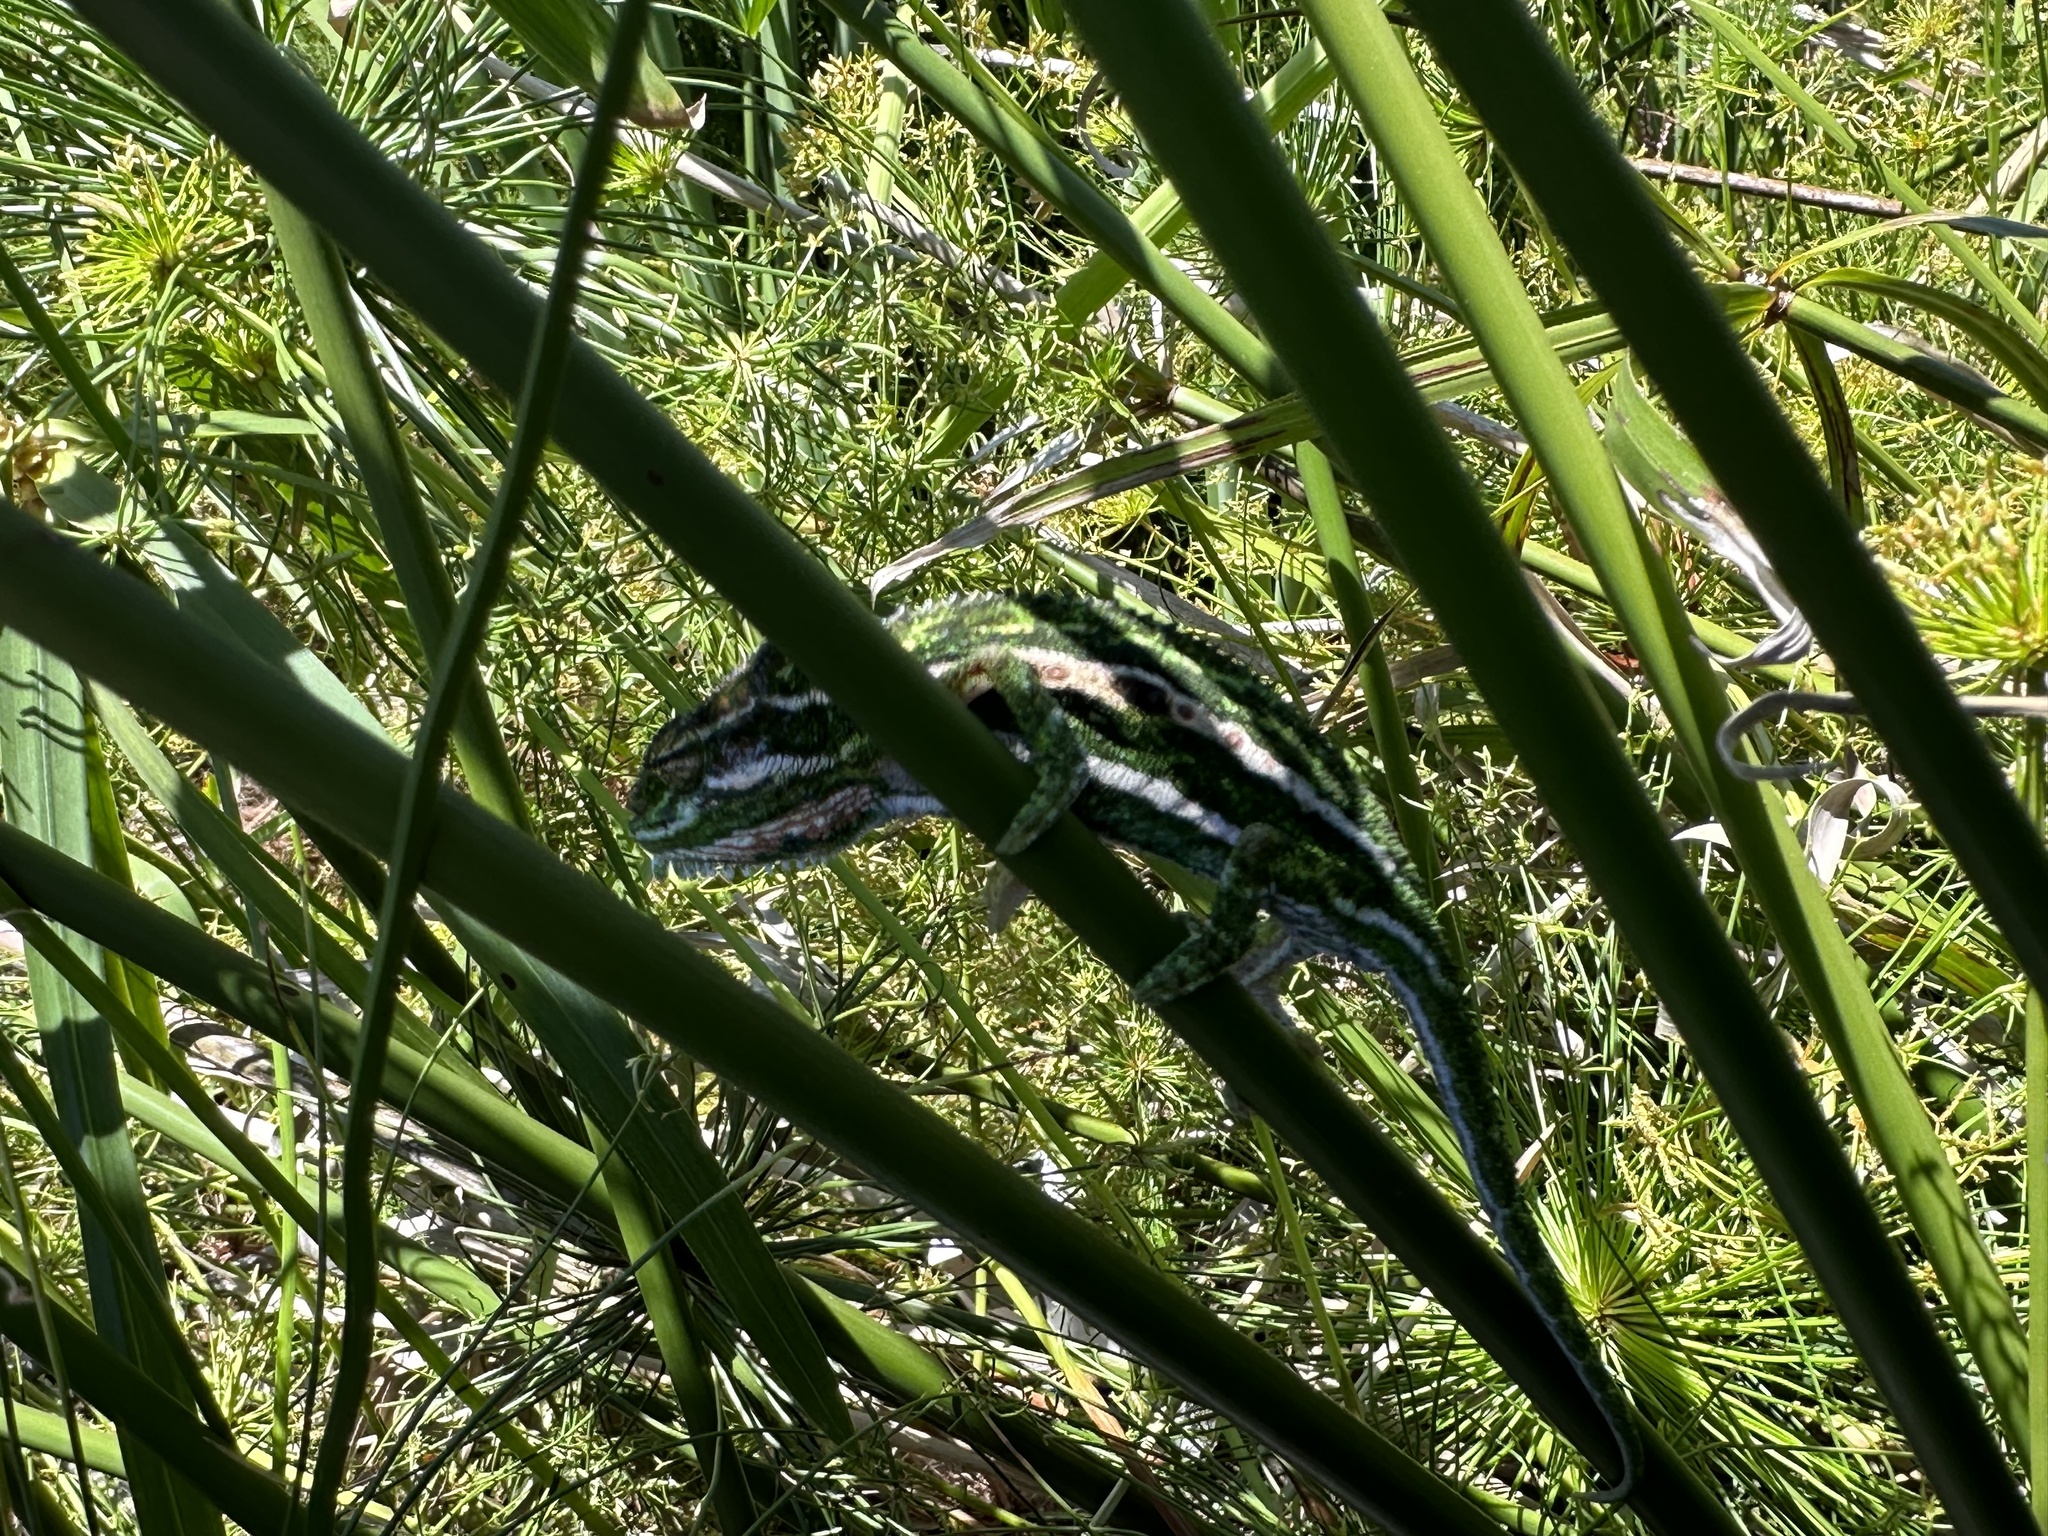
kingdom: Animalia
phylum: Chordata
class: Squamata
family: Chamaeleonidae
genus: Bradypodion
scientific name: Bradypodion pumilum
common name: Cape dwarf chameleon
